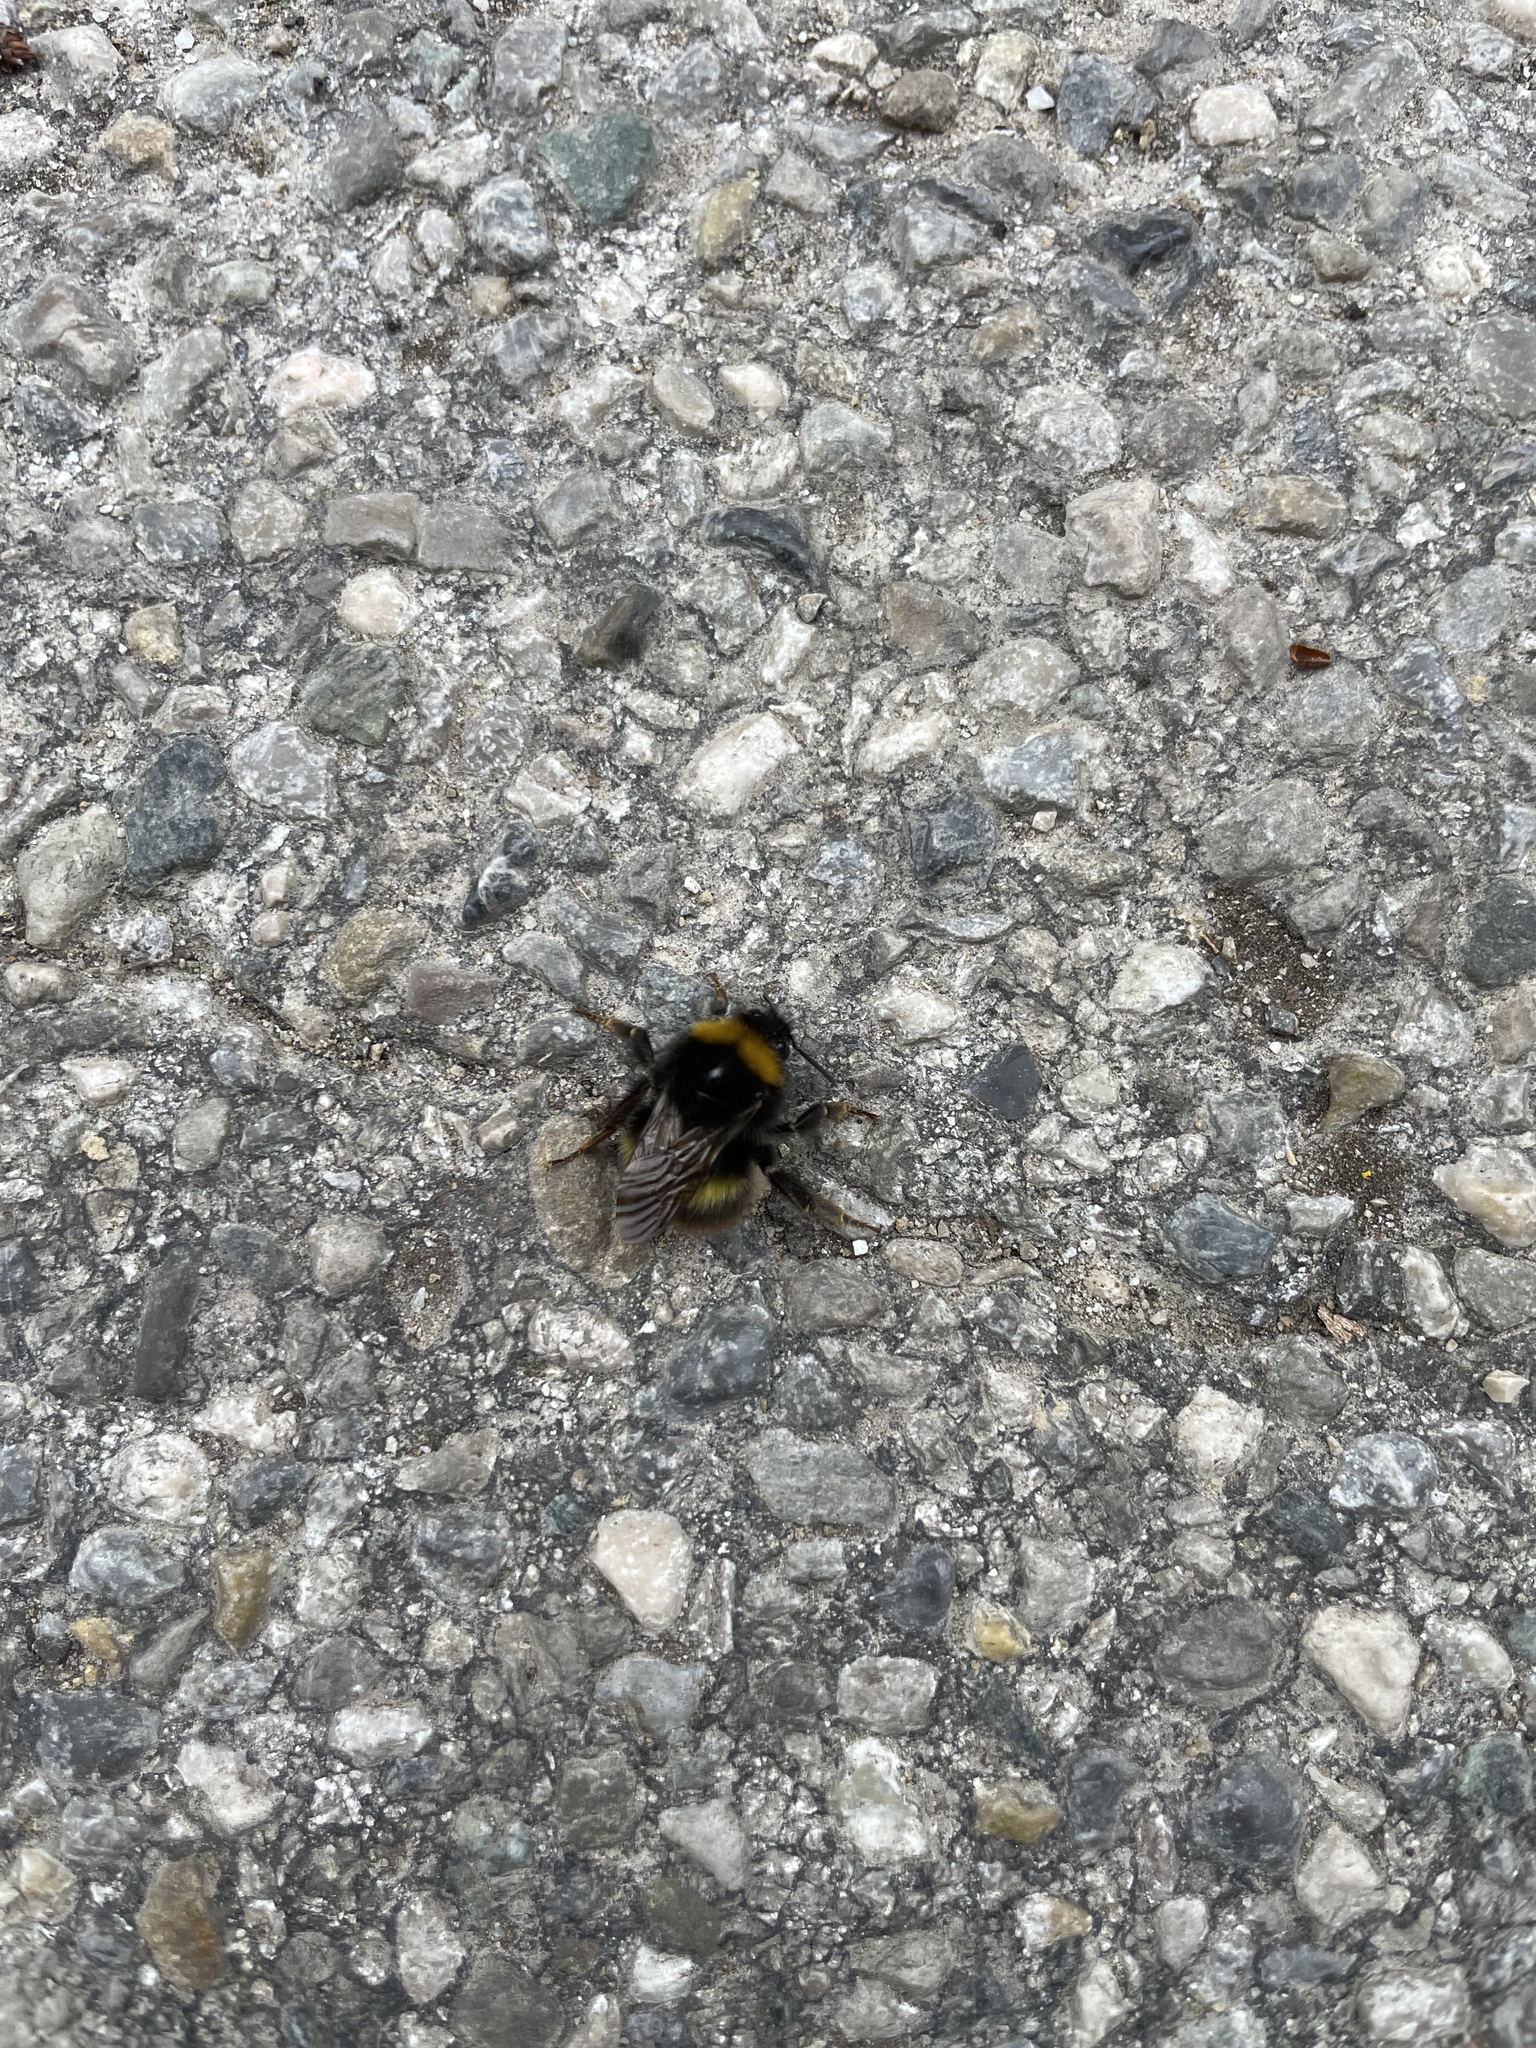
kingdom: Animalia
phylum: Arthropoda
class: Insecta
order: Hymenoptera
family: Apidae
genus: Bombus
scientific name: Bombus pratorum
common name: Early humble-bee
